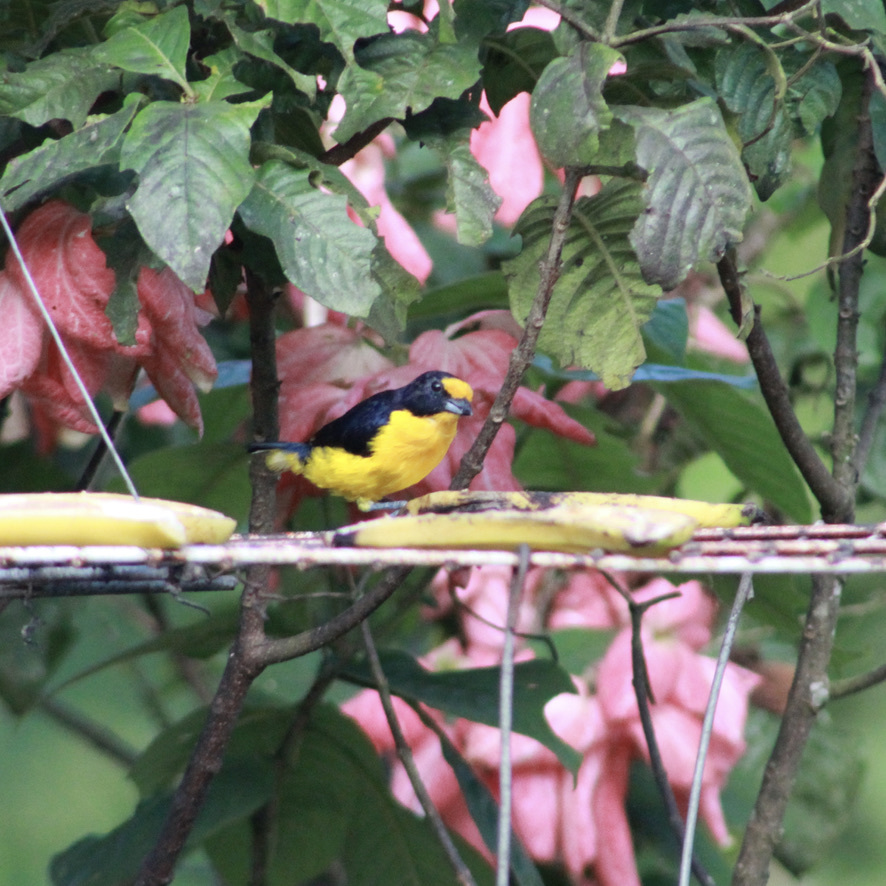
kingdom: Animalia
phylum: Chordata
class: Aves
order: Passeriformes
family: Fringillidae
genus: Euphonia
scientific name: Euphonia violacea
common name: Violaceous euphonia
